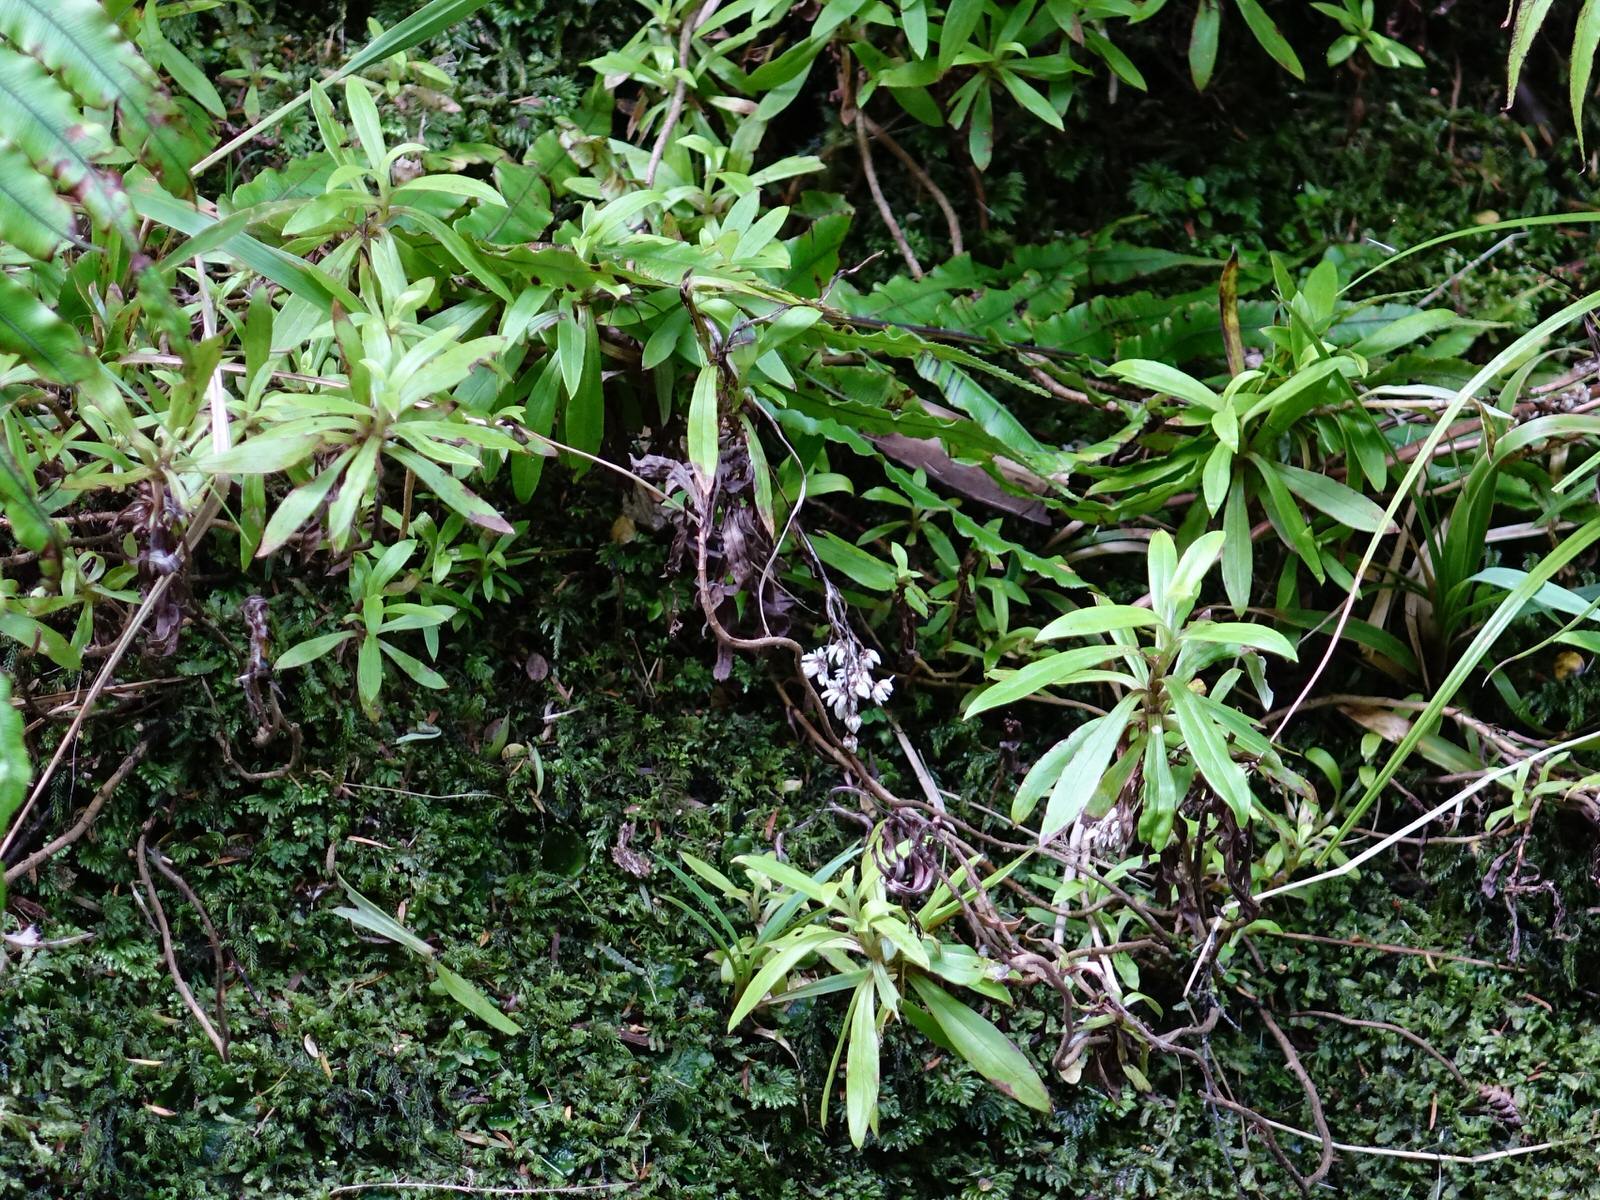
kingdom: Plantae
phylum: Tracheophyta
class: Magnoliopsida
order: Asterales
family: Asteraceae
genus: Anaphalioides
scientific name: Anaphalioides trinervis
